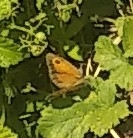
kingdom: Animalia
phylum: Arthropoda
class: Insecta
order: Lepidoptera
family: Nymphalidae
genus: Pyronia
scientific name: Pyronia cecilia
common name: Southern gatekeeper
